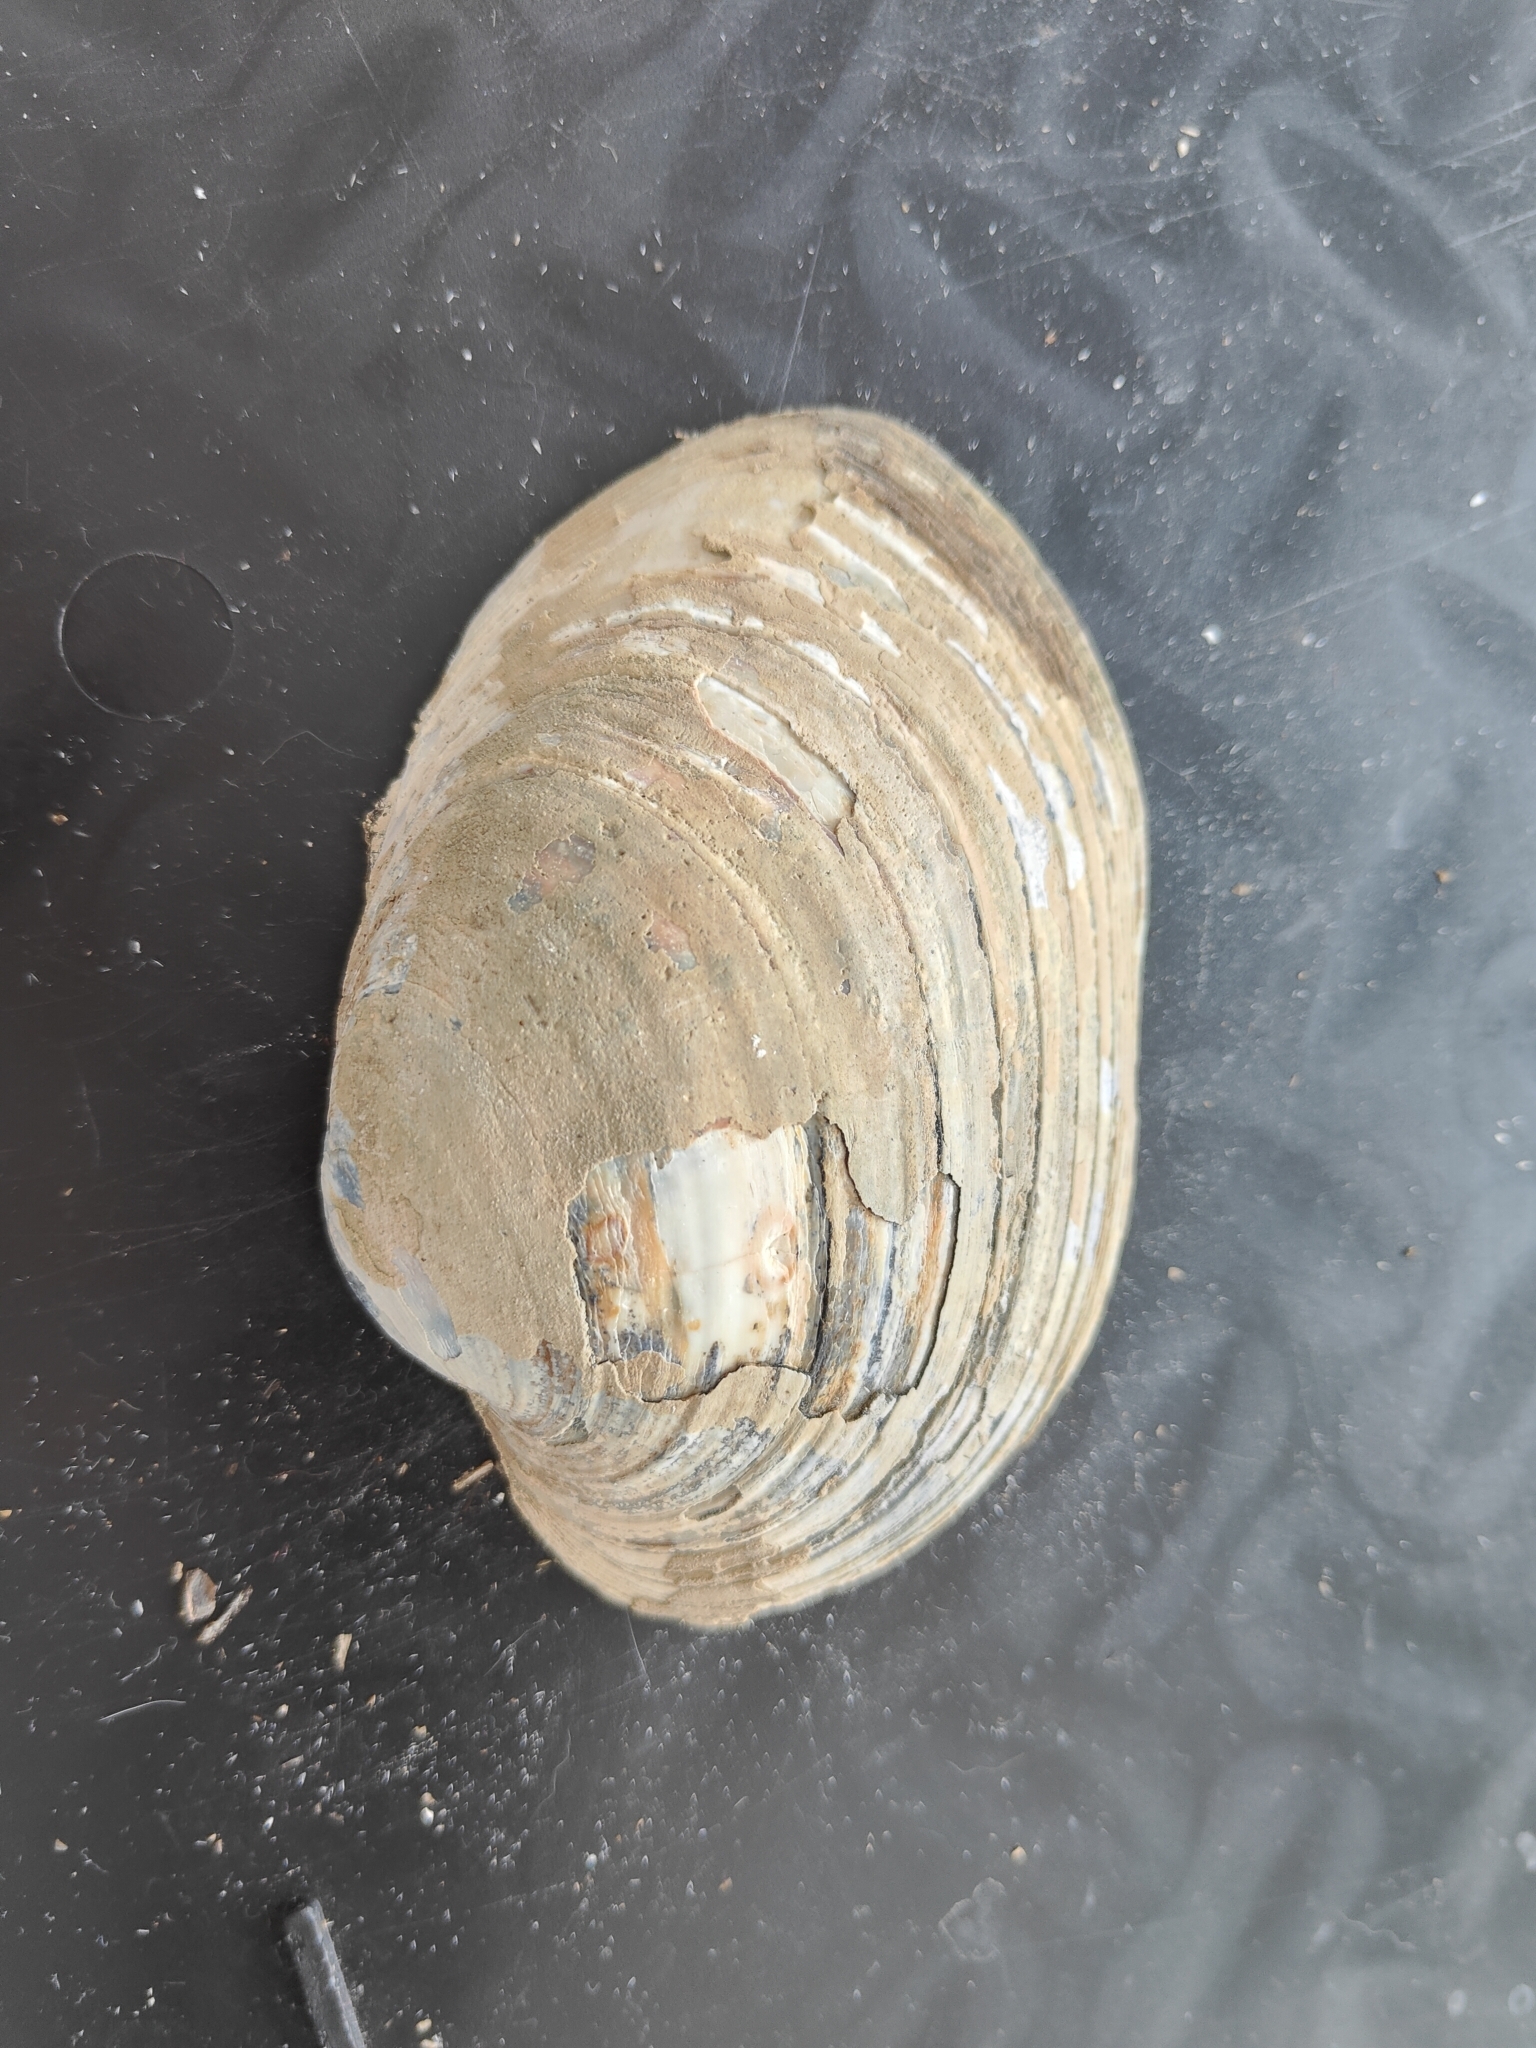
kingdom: Animalia
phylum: Mollusca
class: Bivalvia
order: Unionida
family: Unionidae
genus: Lampsilis
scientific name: Lampsilis cardium
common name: Plain pocketbook
